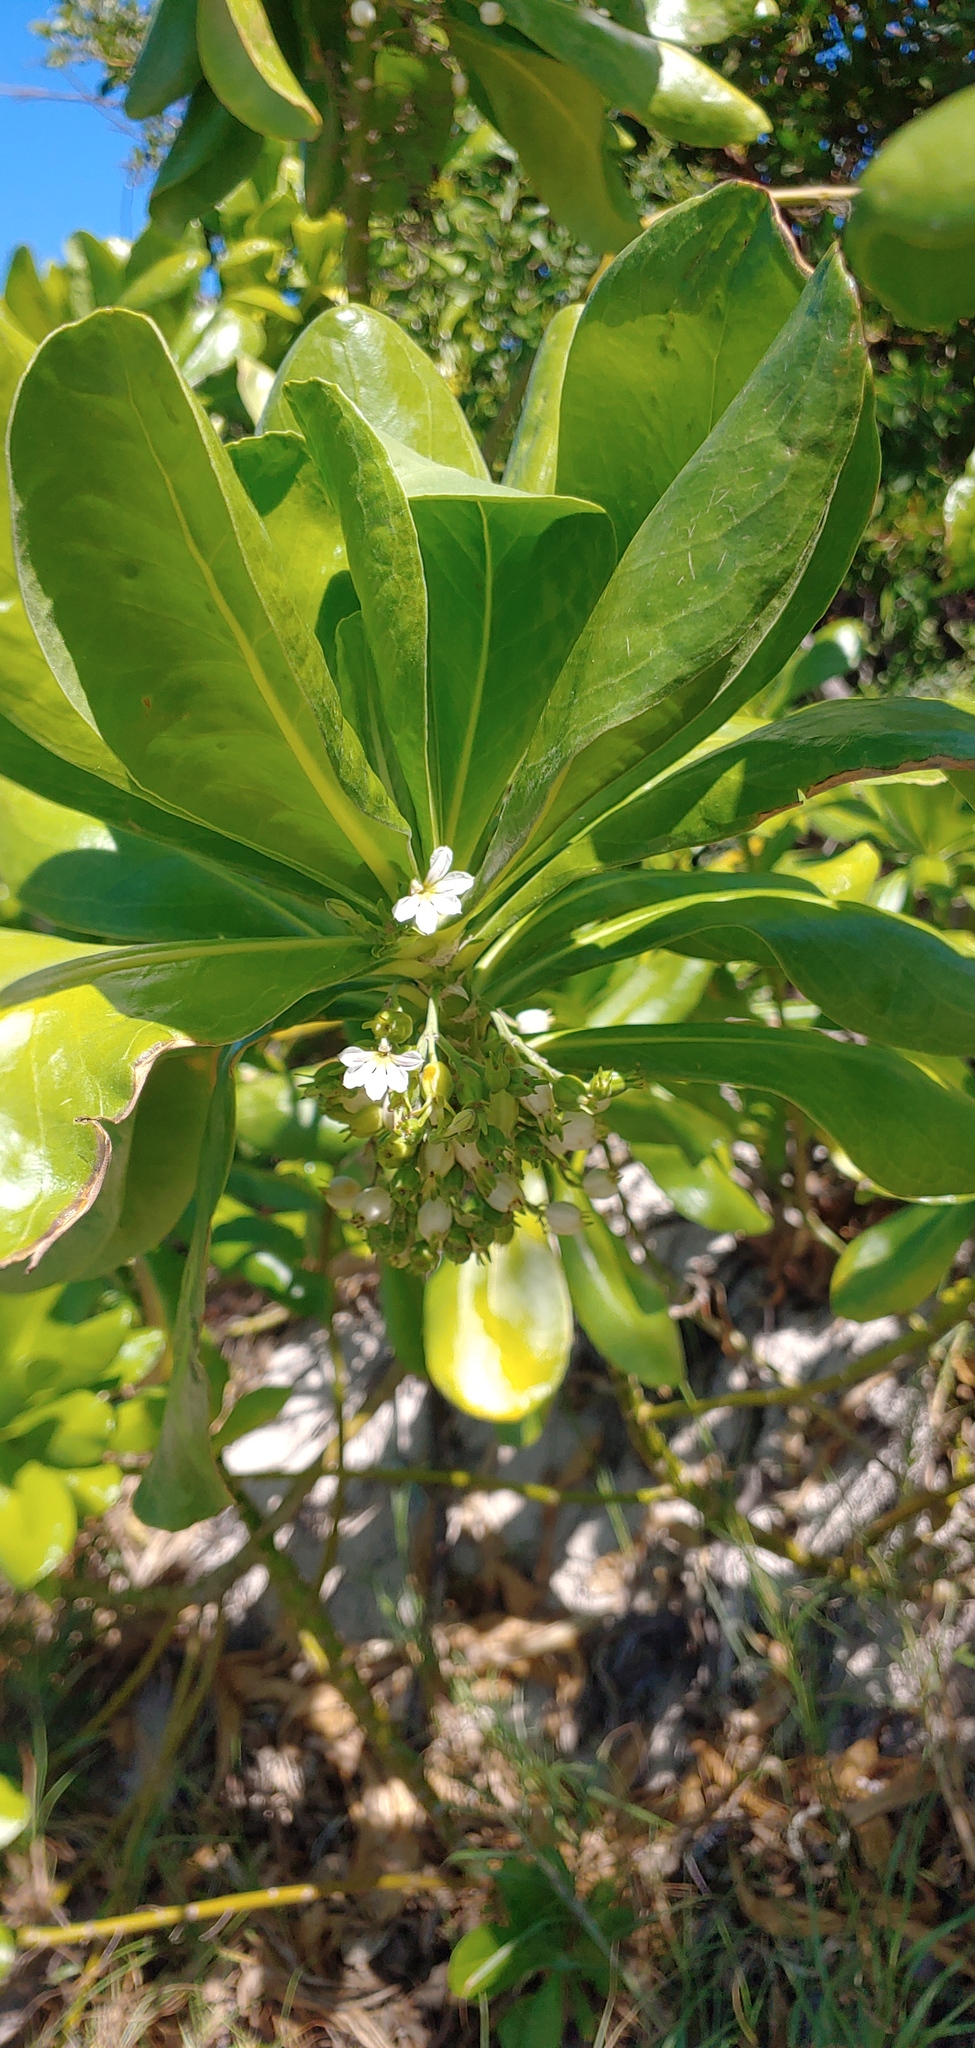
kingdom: Plantae
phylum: Tracheophyta
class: Magnoliopsida
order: Asterales
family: Goodeniaceae
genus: Scaevola
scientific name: Scaevola taccada
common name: Sea lettucetree
